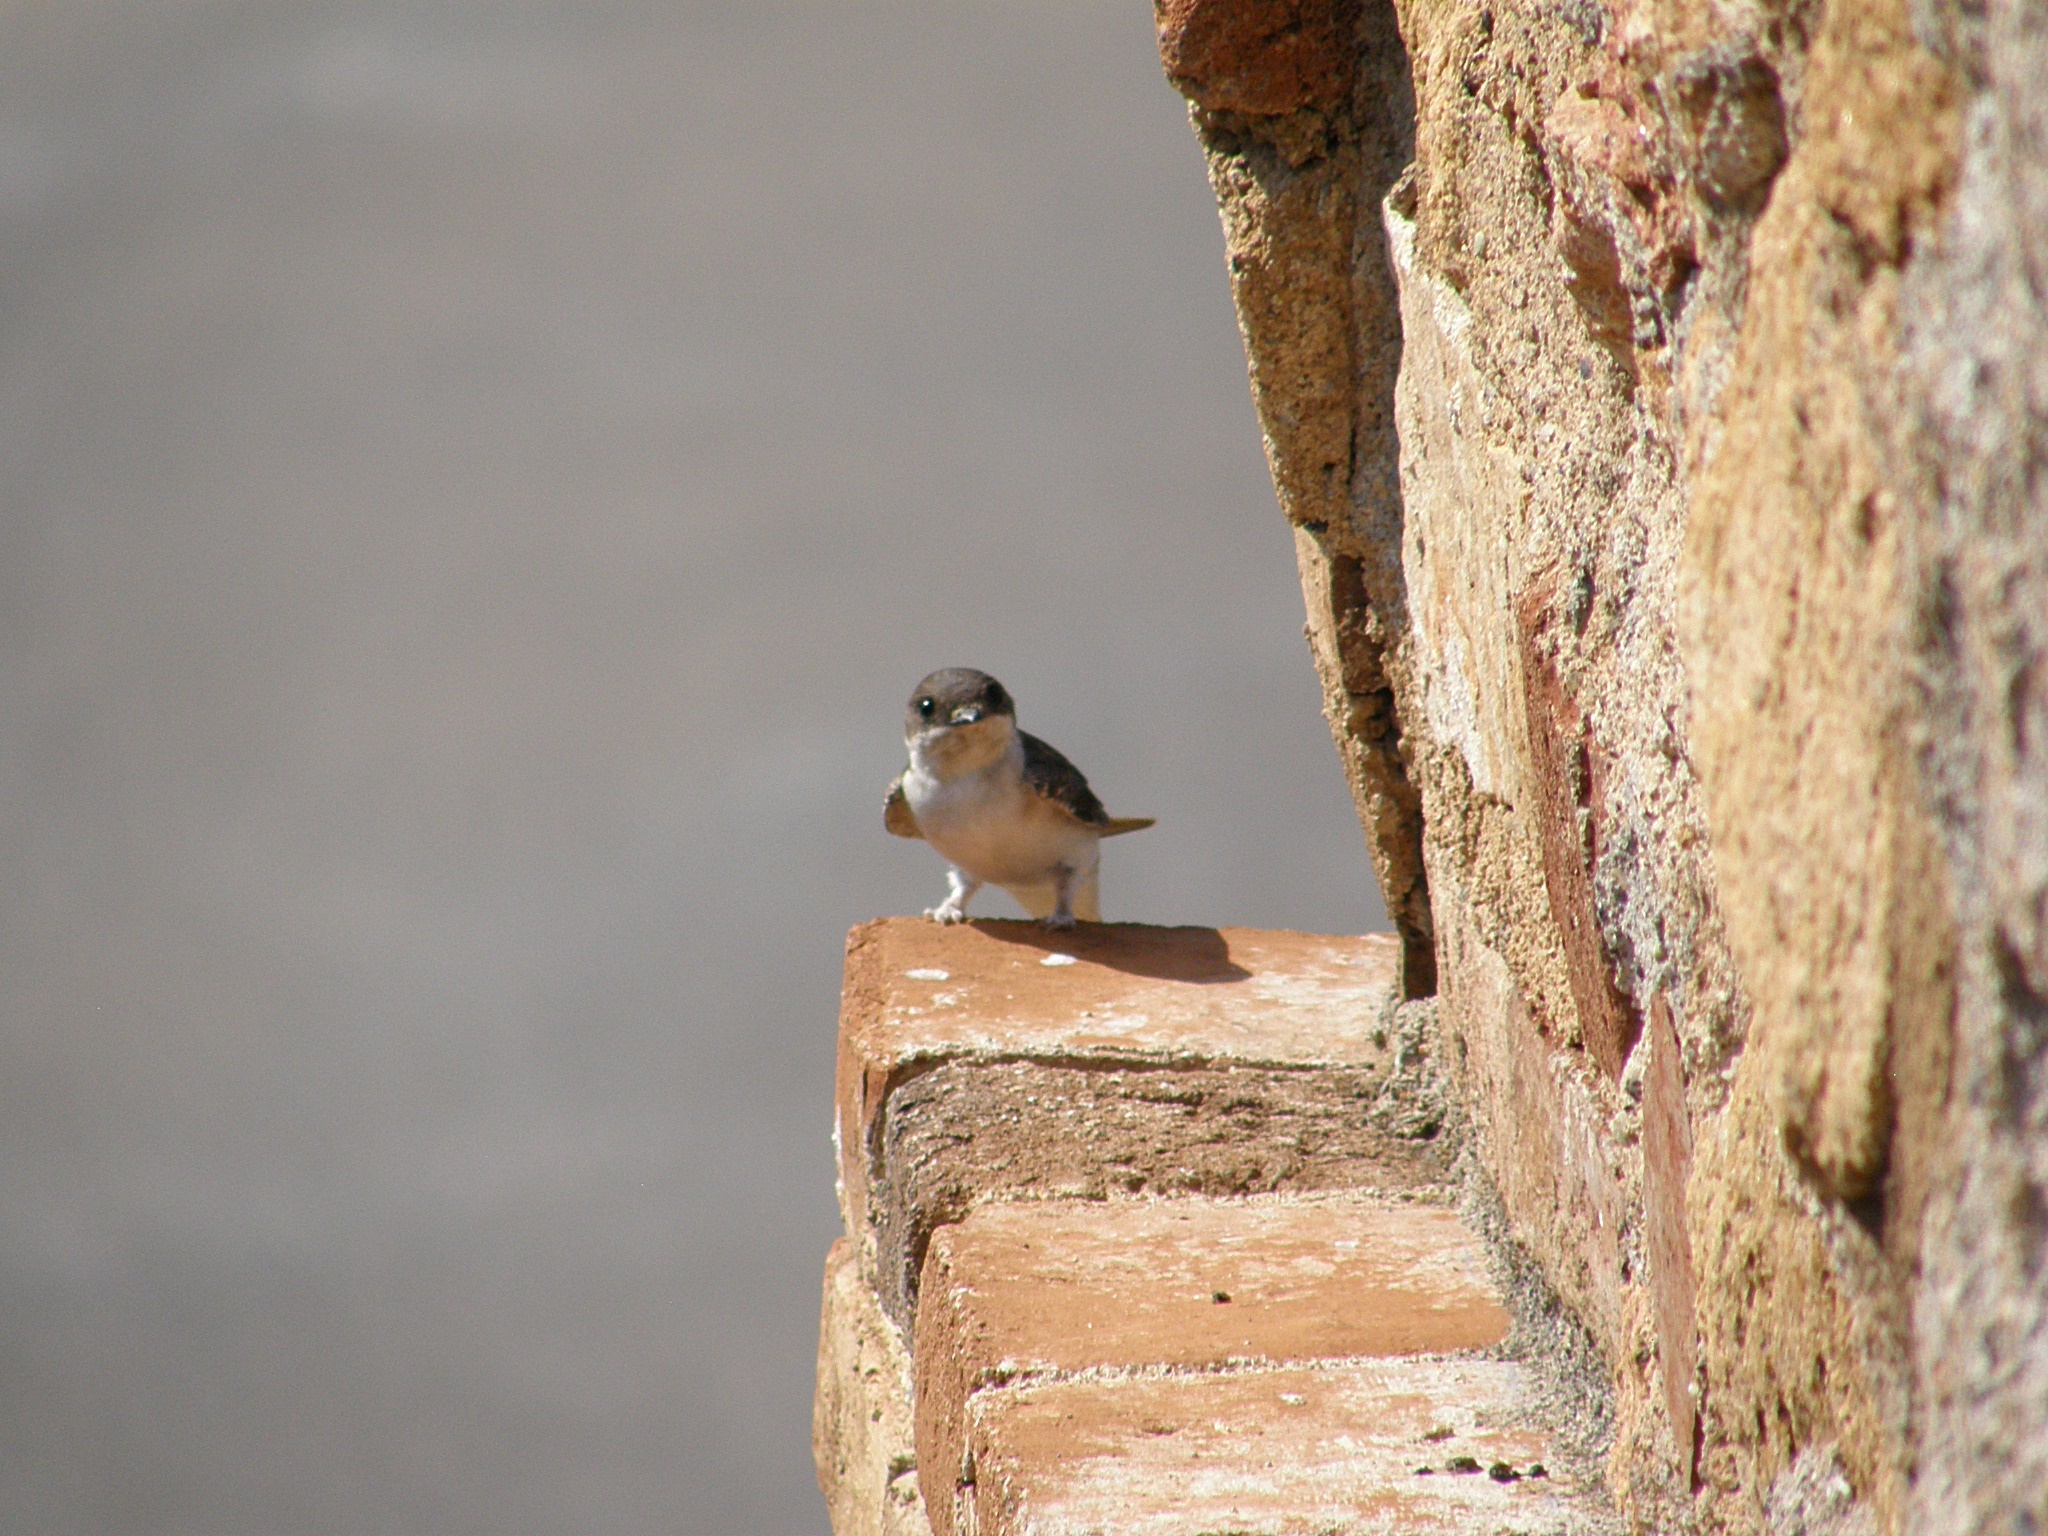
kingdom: Animalia
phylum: Chordata
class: Aves
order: Passeriformes
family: Hirundinidae
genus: Delichon
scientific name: Delichon urbicum
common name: Common house martin
